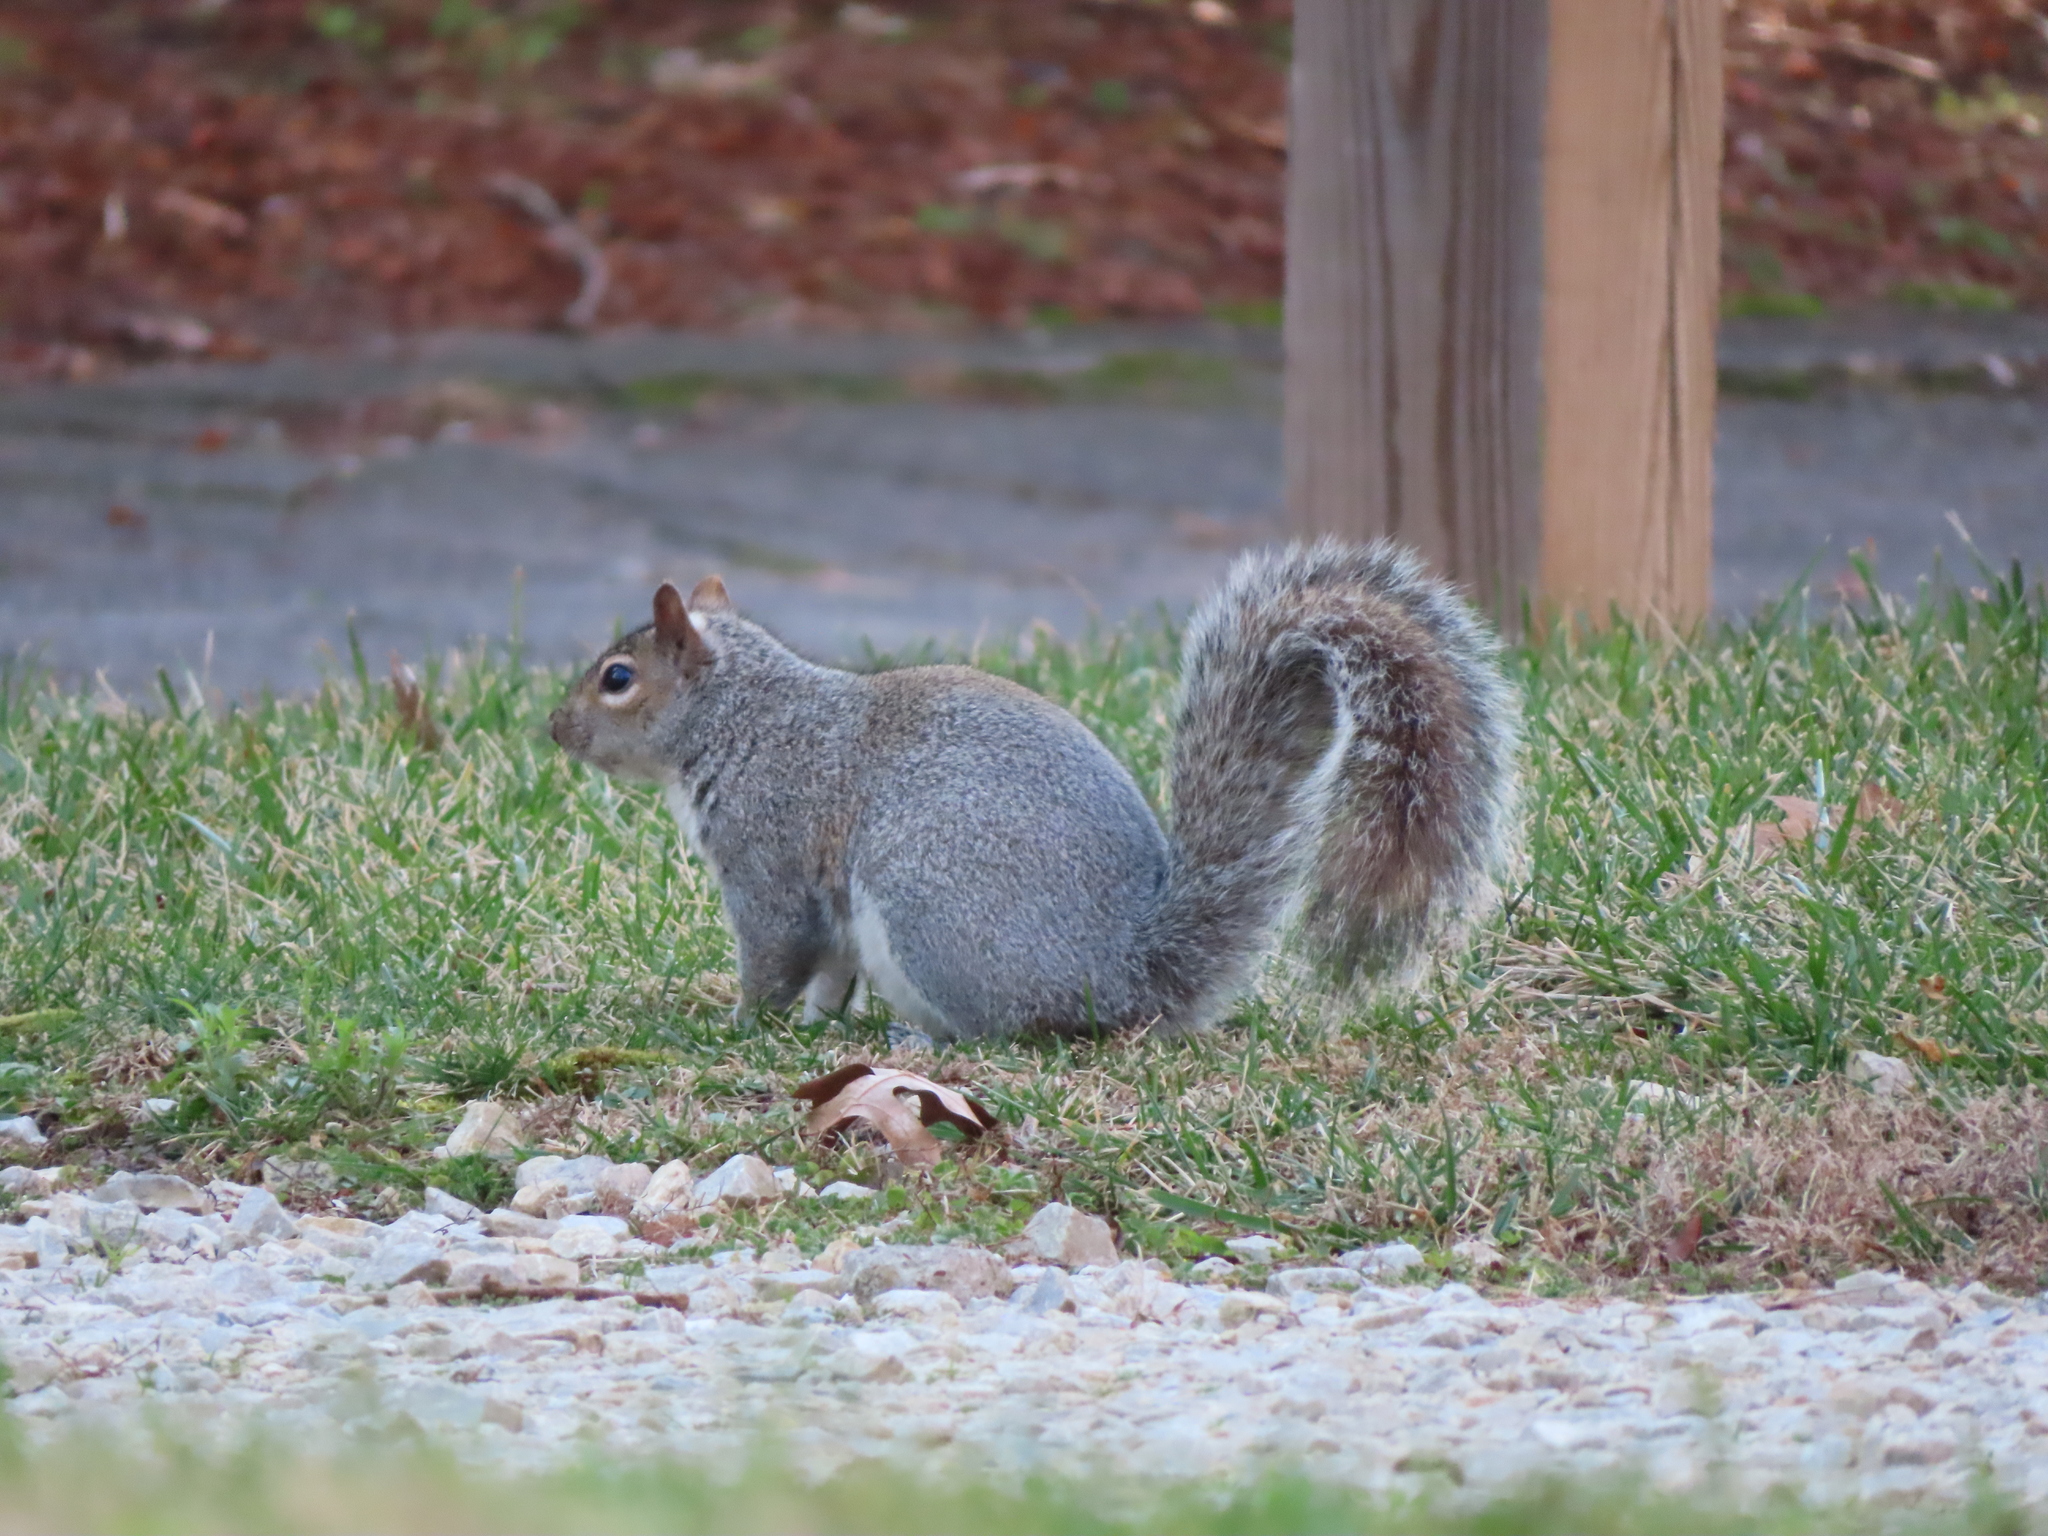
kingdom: Animalia
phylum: Chordata
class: Mammalia
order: Rodentia
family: Sciuridae
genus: Sciurus
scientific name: Sciurus carolinensis
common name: Eastern gray squirrel
